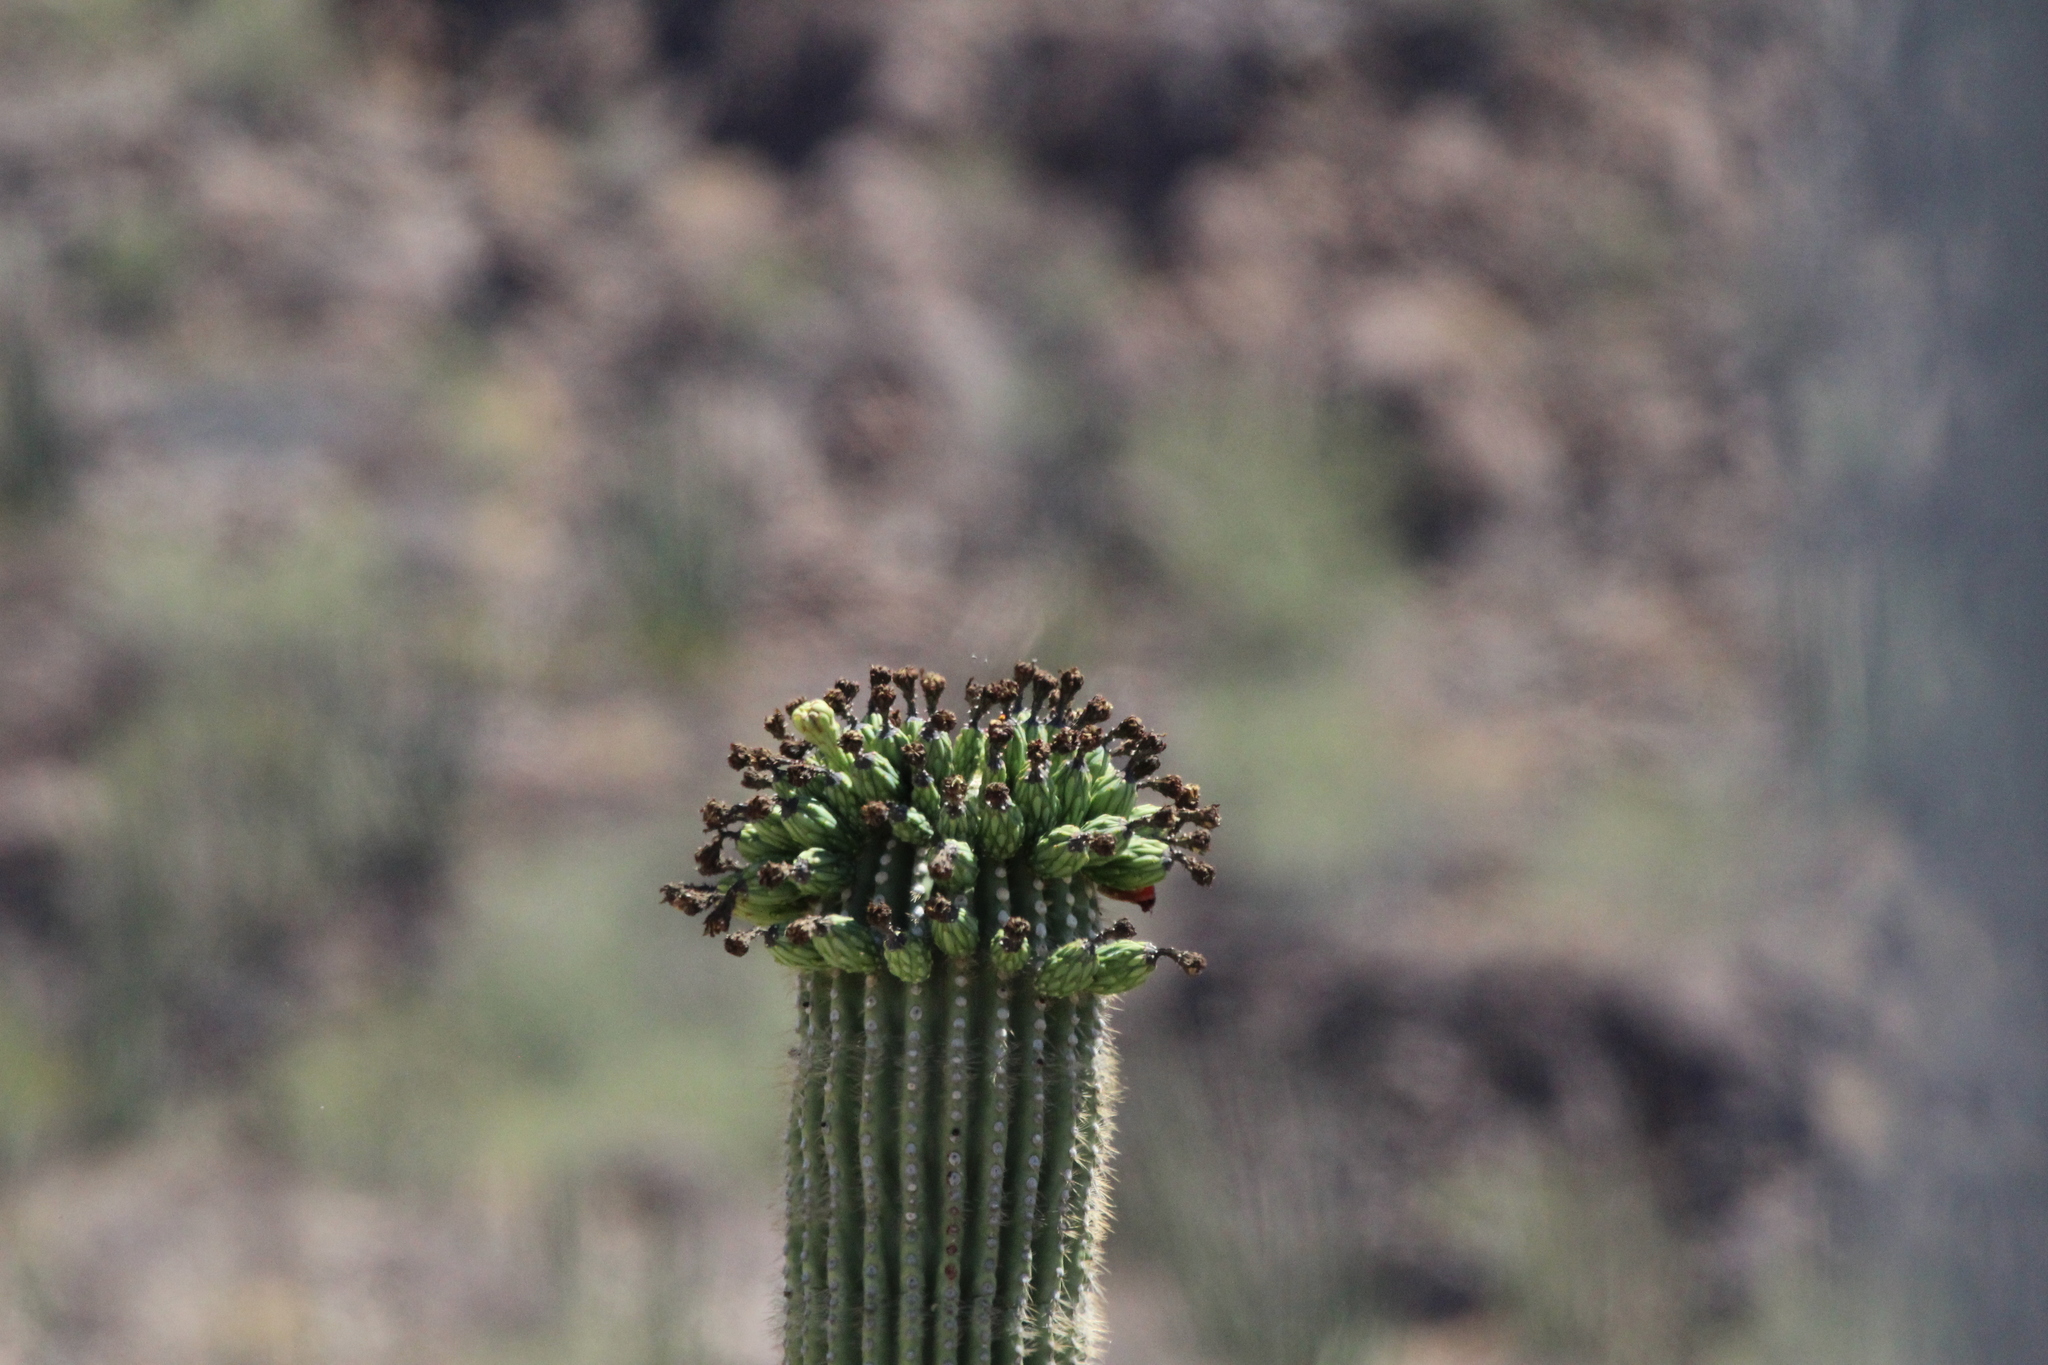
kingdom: Plantae
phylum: Tracheophyta
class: Magnoliopsida
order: Caryophyllales
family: Cactaceae
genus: Carnegiea
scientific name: Carnegiea gigantea
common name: Saguaro
